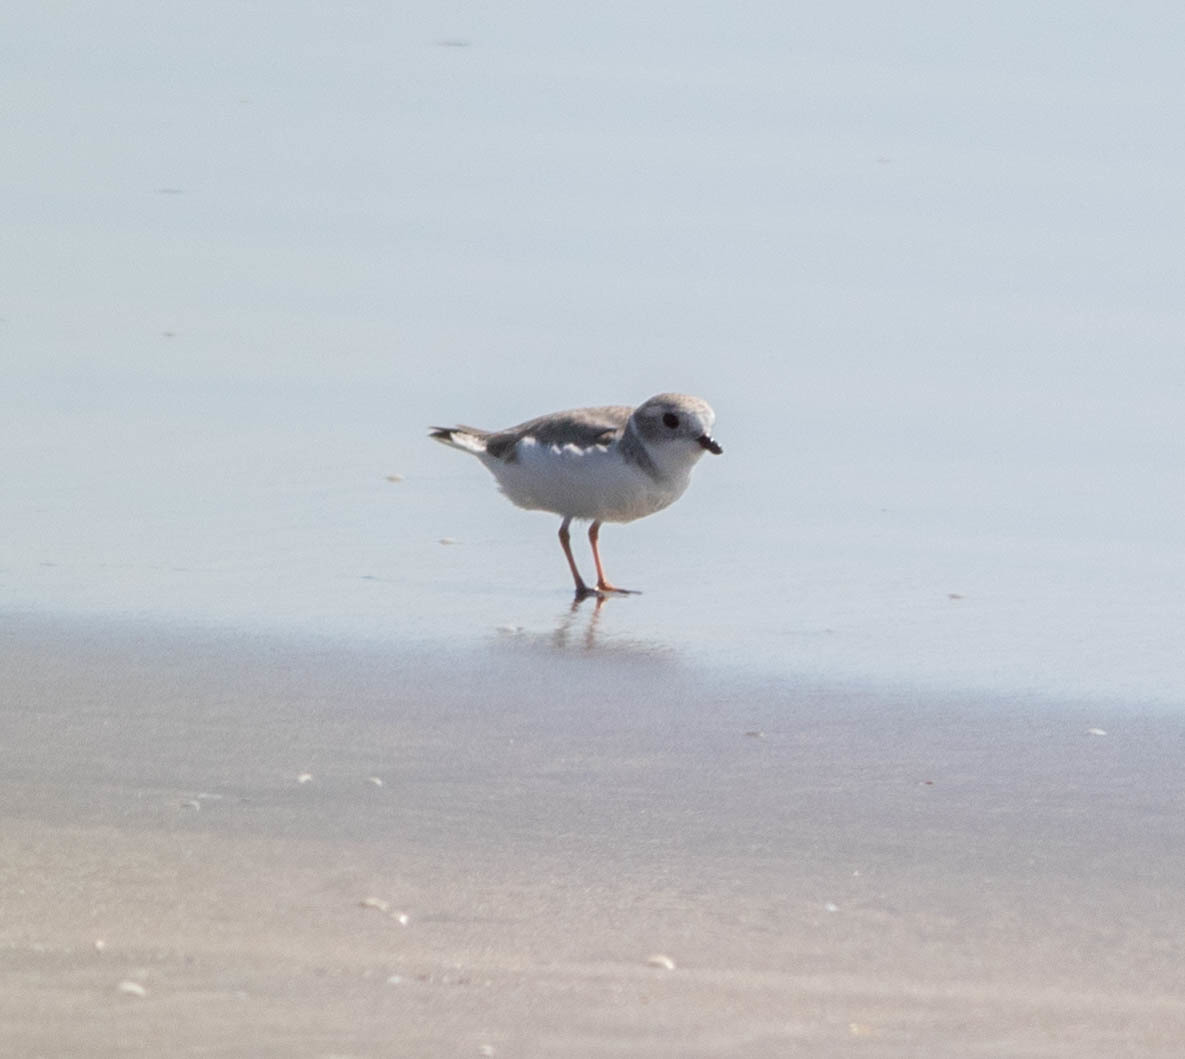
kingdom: Animalia
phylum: Chordata
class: Aves
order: Charadriiformes
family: Charadriidae
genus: Charadrius
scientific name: Charadrius melodus
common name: Piping plover
